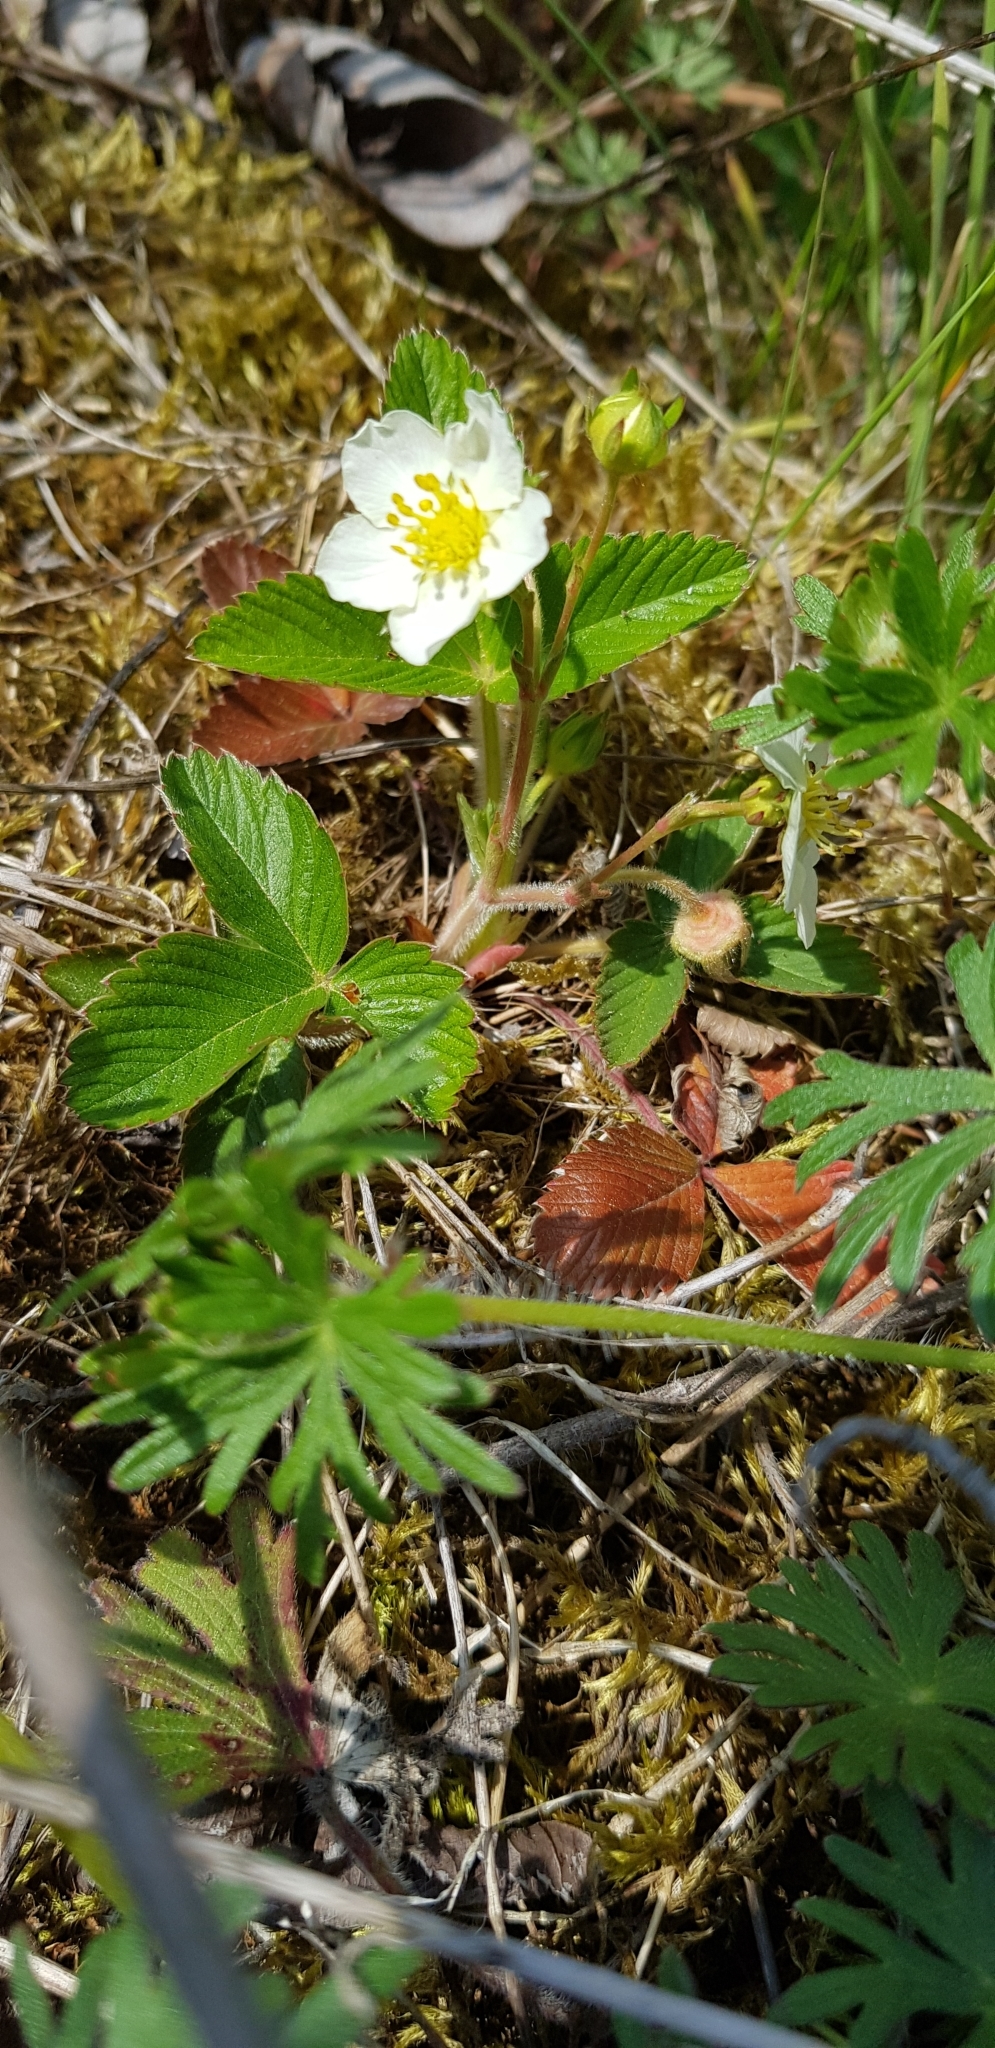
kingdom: Plantae
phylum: Tracheophyta
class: Magnoliopsida
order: Rosales
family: Rosaceae
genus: Fragaria
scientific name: Fragaria viridis
